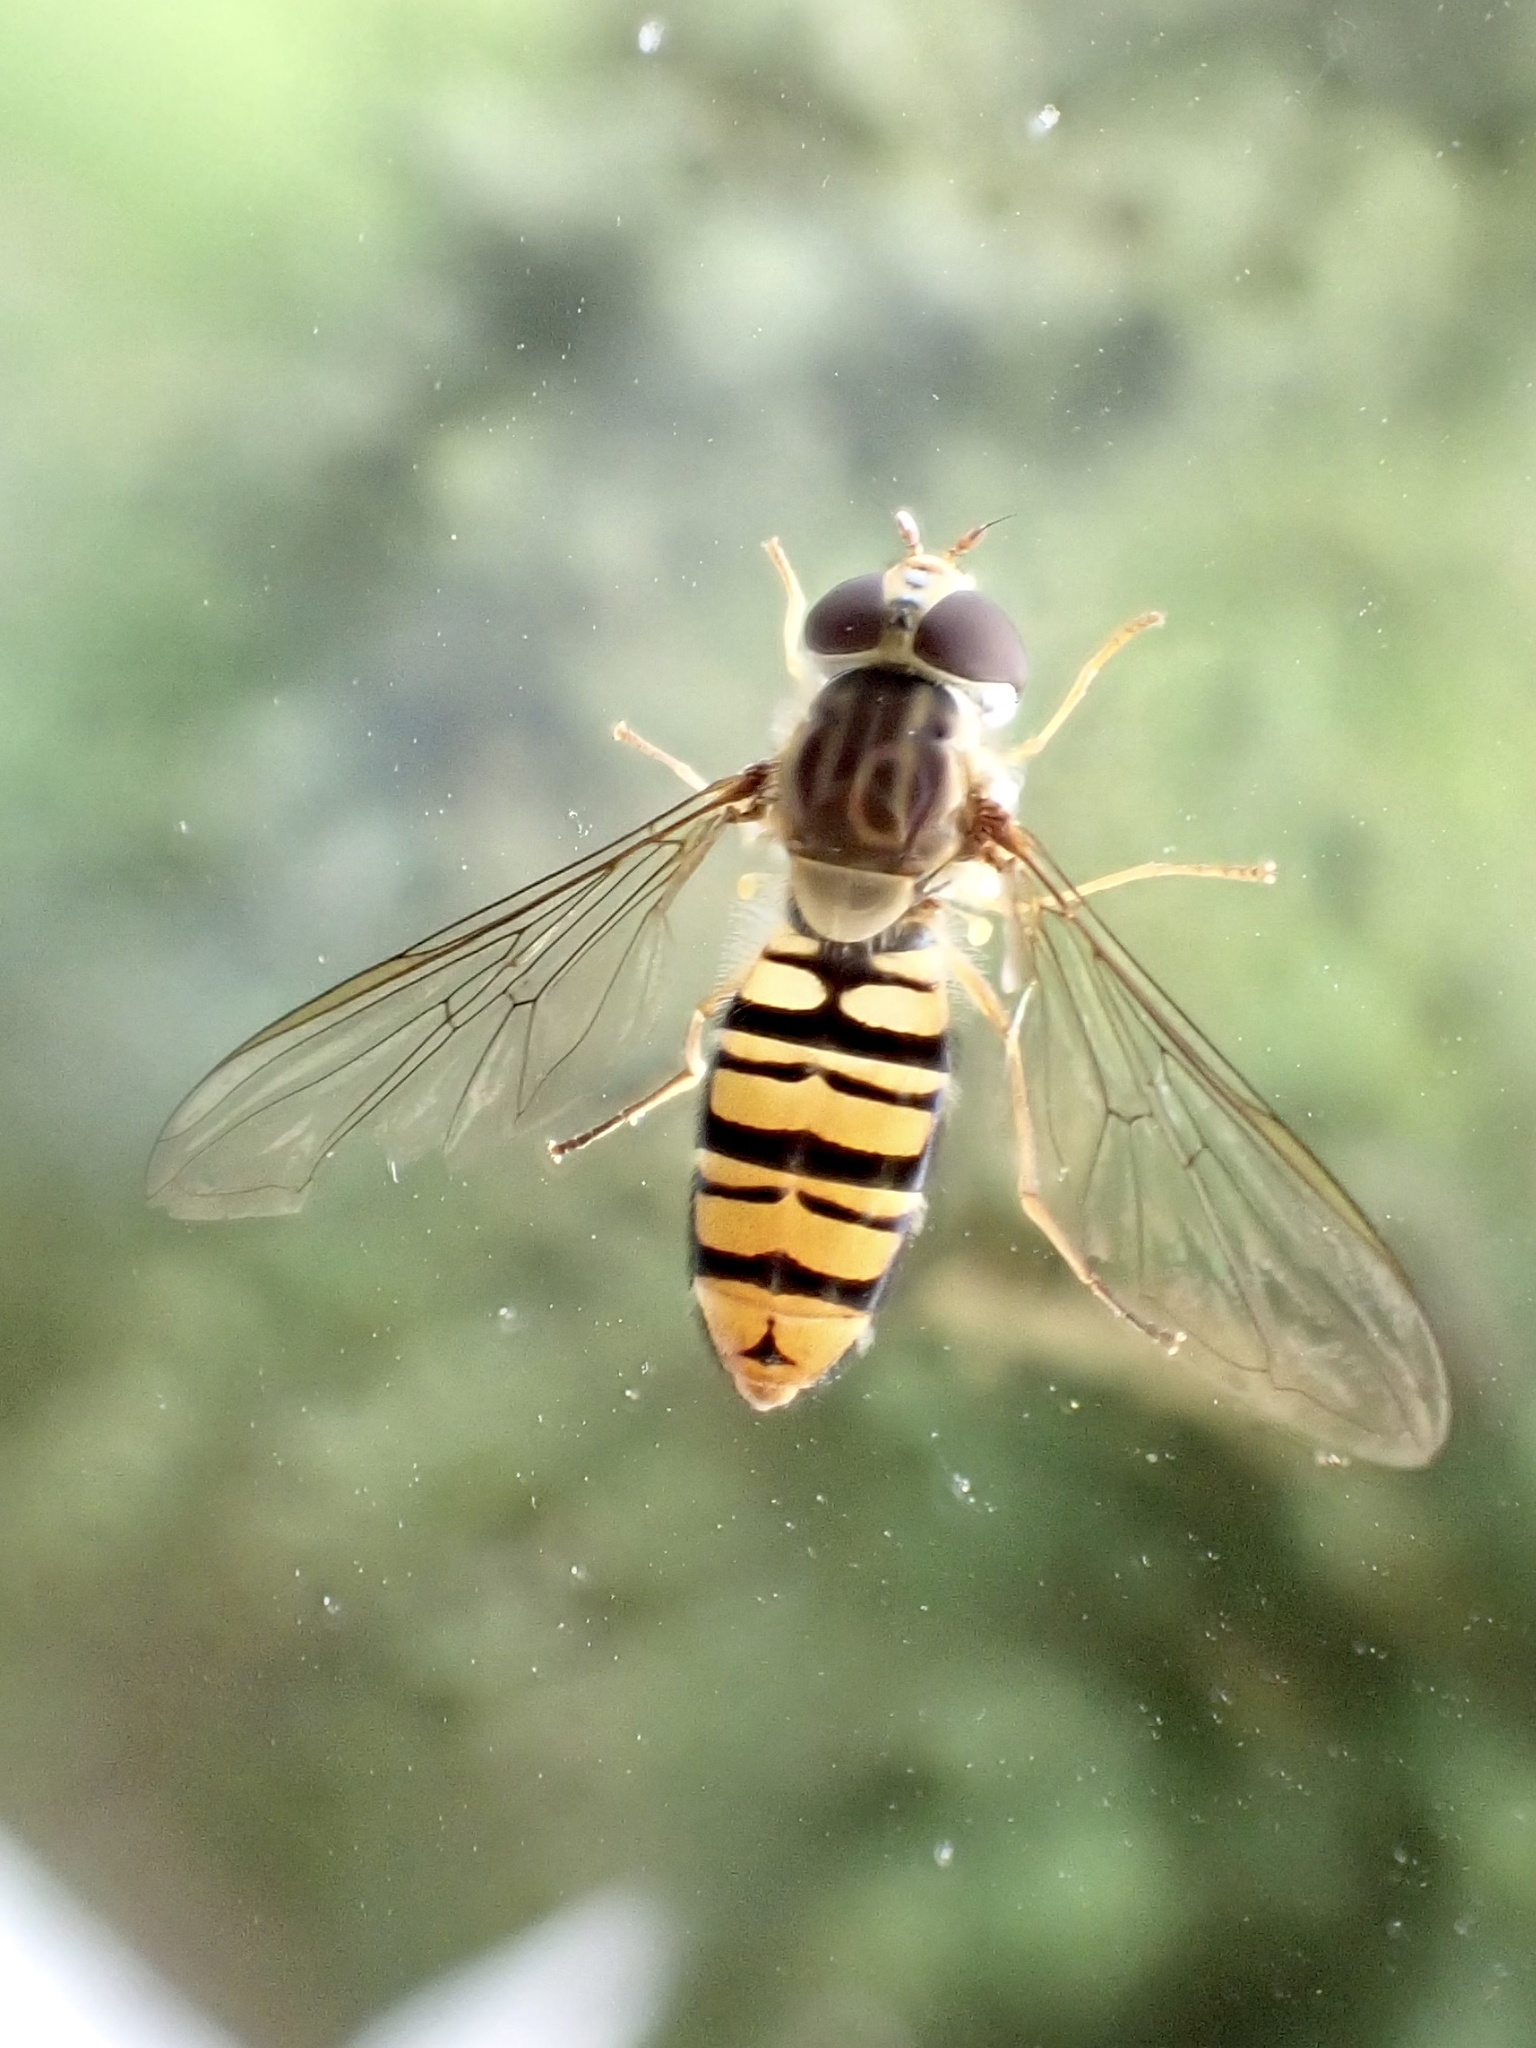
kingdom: Animalia
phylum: Arthropoda
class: Insecta
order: Diptera
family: Syrphidae
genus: Episyrphus
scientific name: Episyrphus balteatus
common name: Marmalade hoverfly
